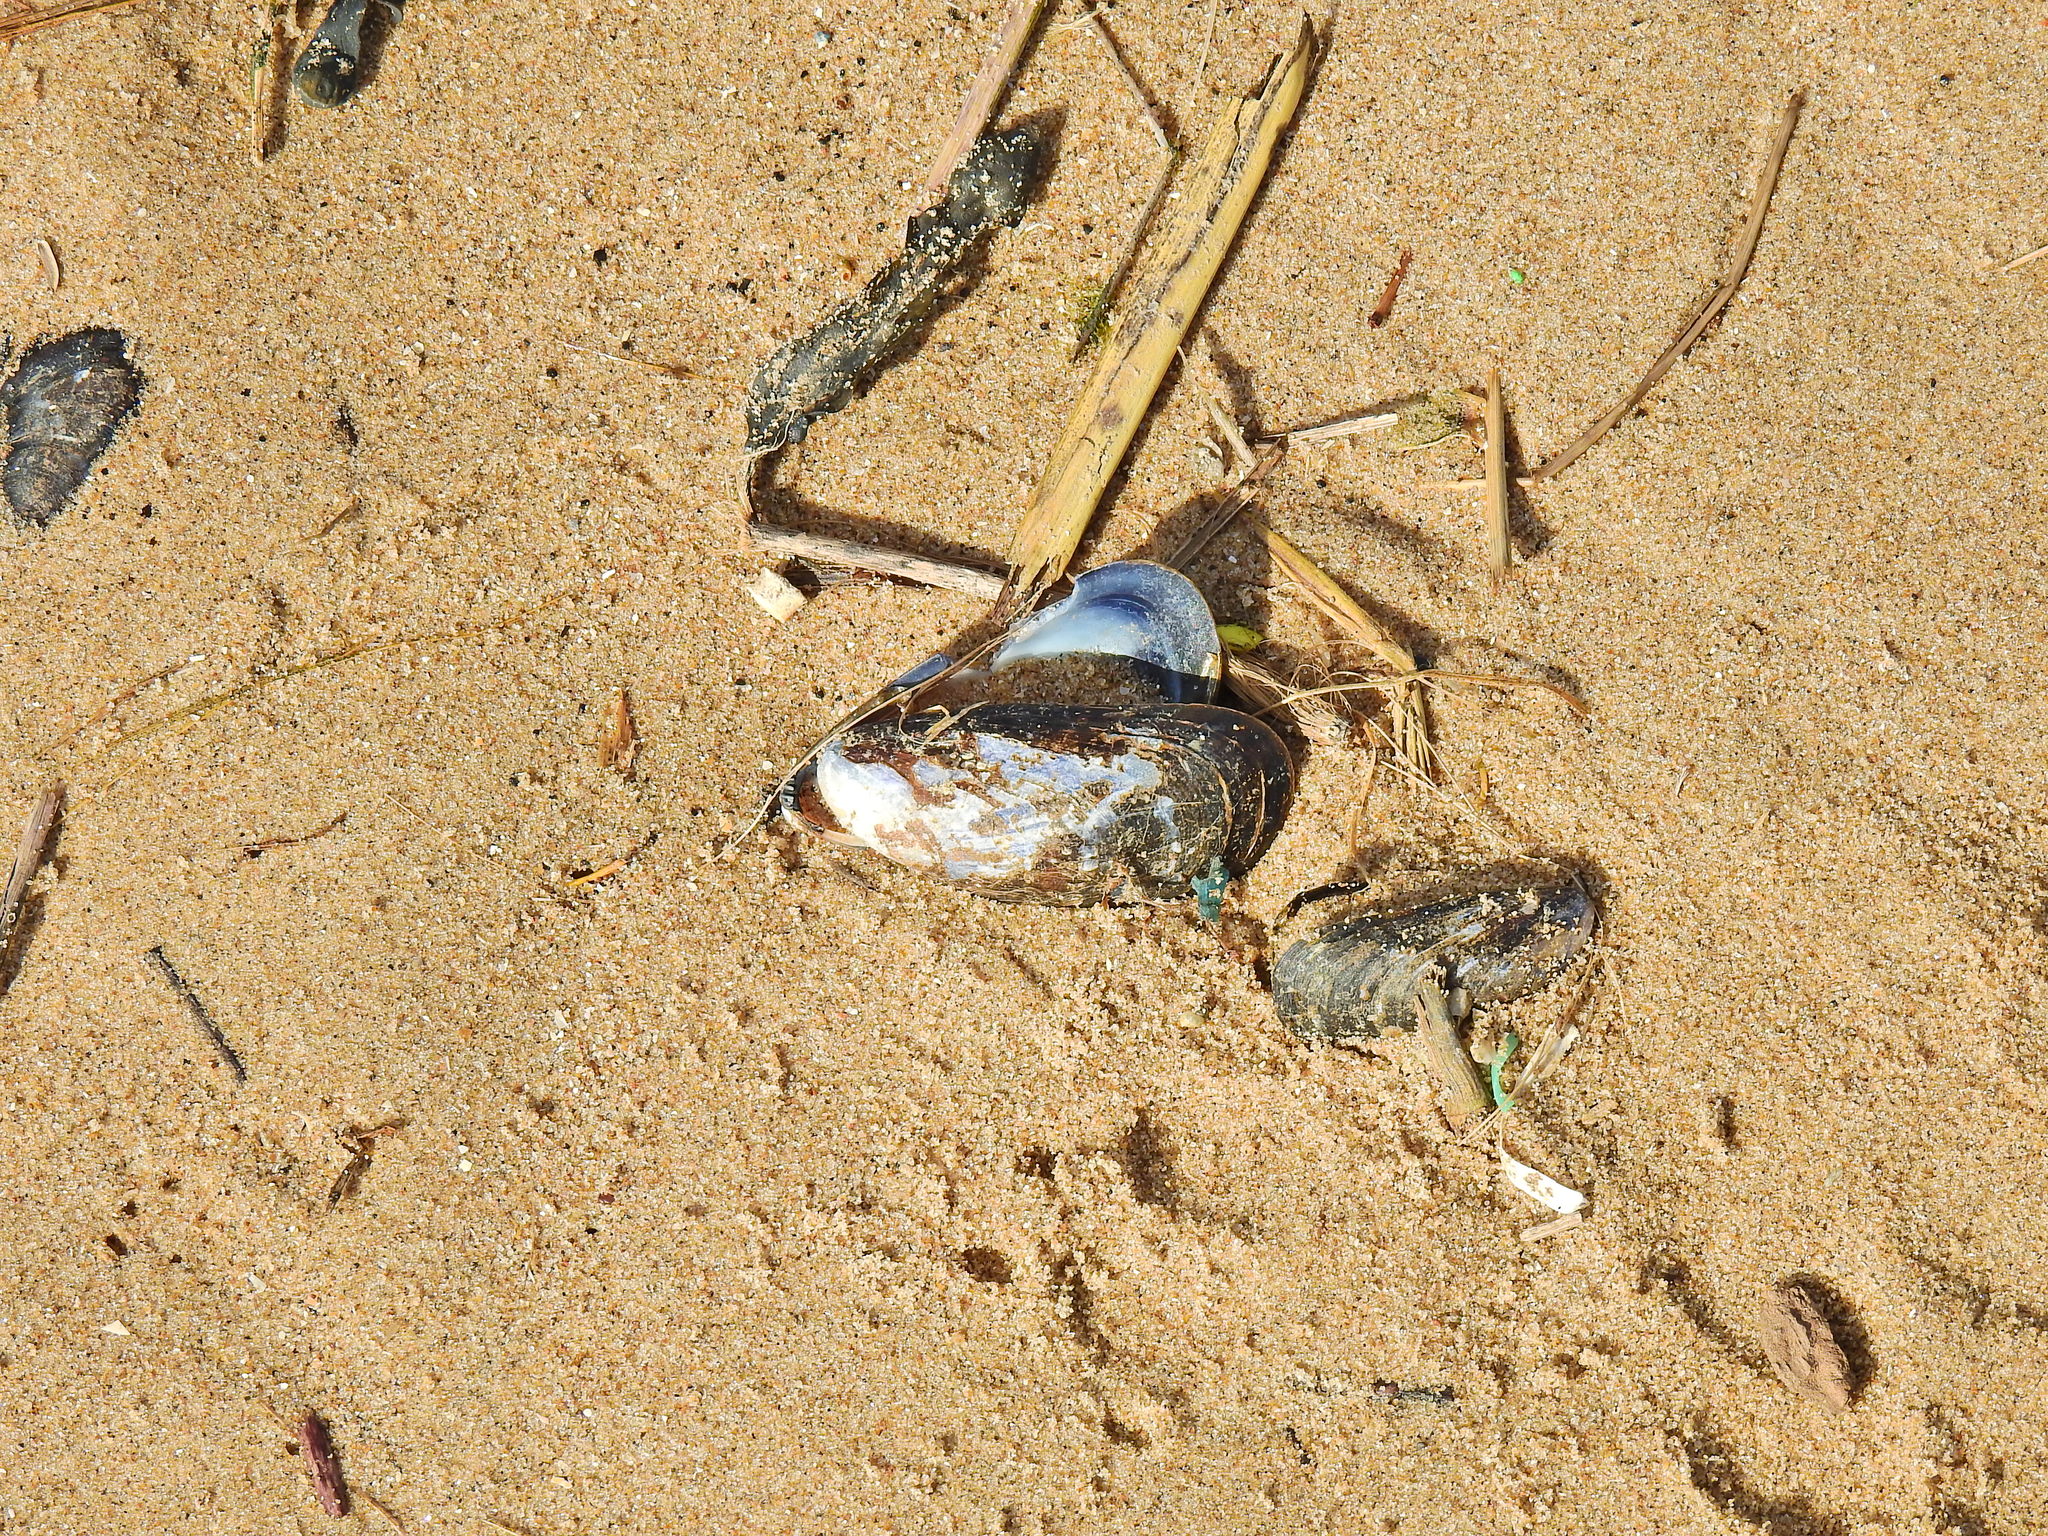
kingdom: Animalia
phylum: Mollusca
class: Bivalvia
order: Mytilida
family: Mytilidae
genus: Mytilus
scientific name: Mytilus edulis
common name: Blue mussel
